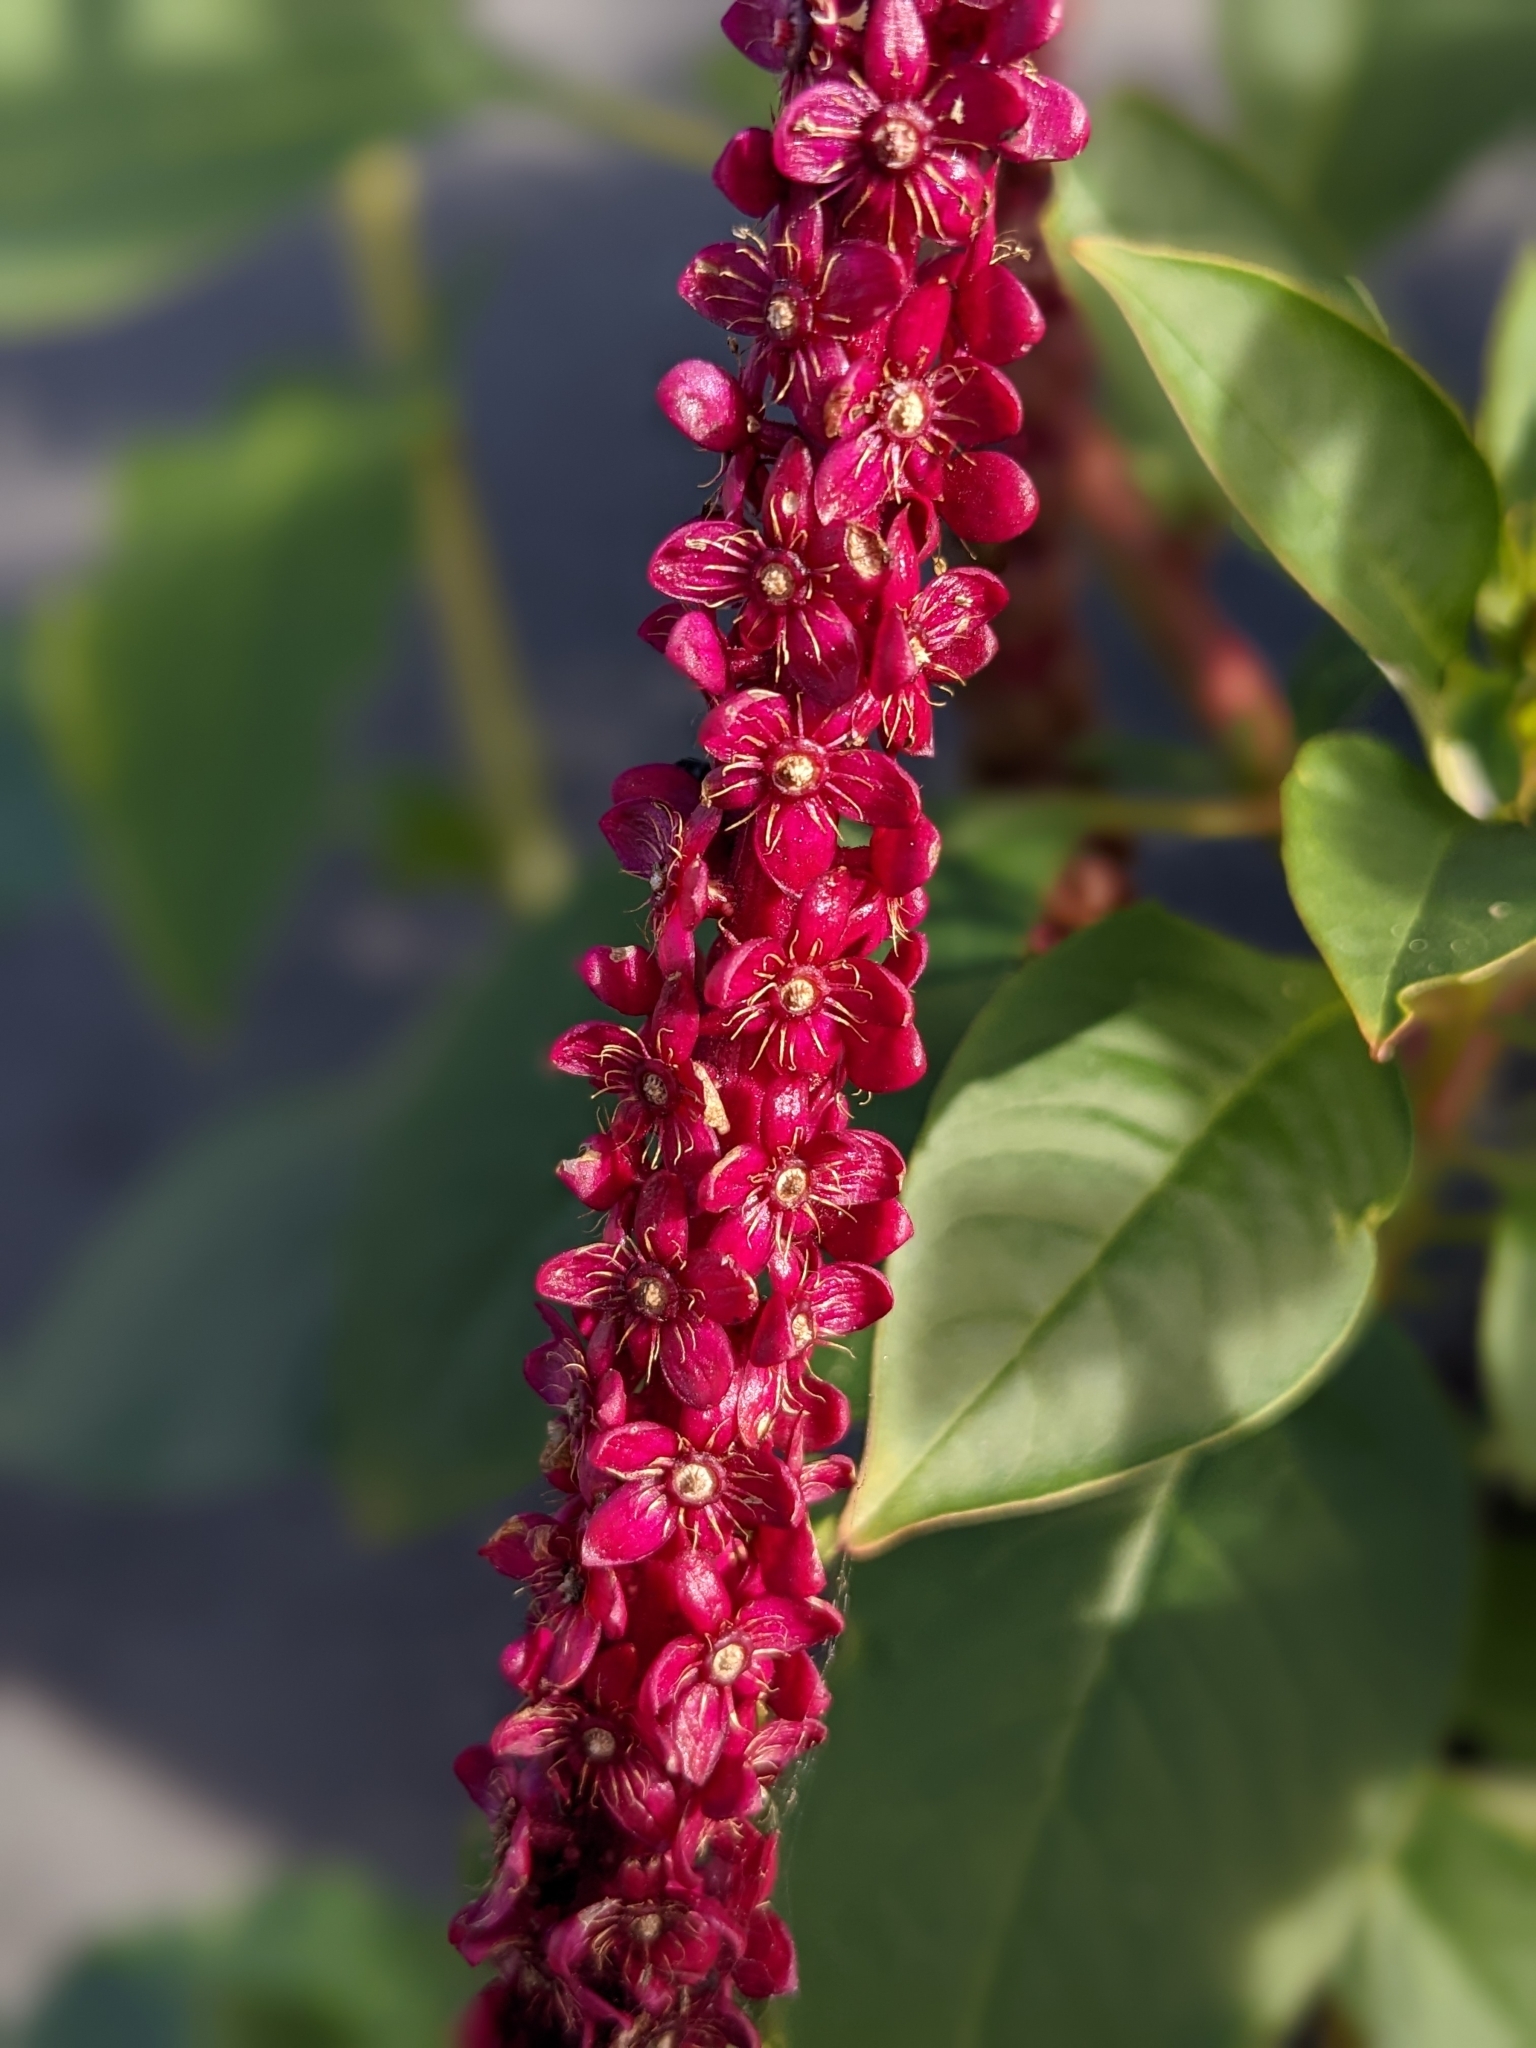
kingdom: Plantae
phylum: Tracheophyta
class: Magnoliopsida
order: Caryophyllales
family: Phytolaccaceae
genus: Phytolacca
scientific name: Phytolacca heterotepala
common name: Mexican pokeweed
